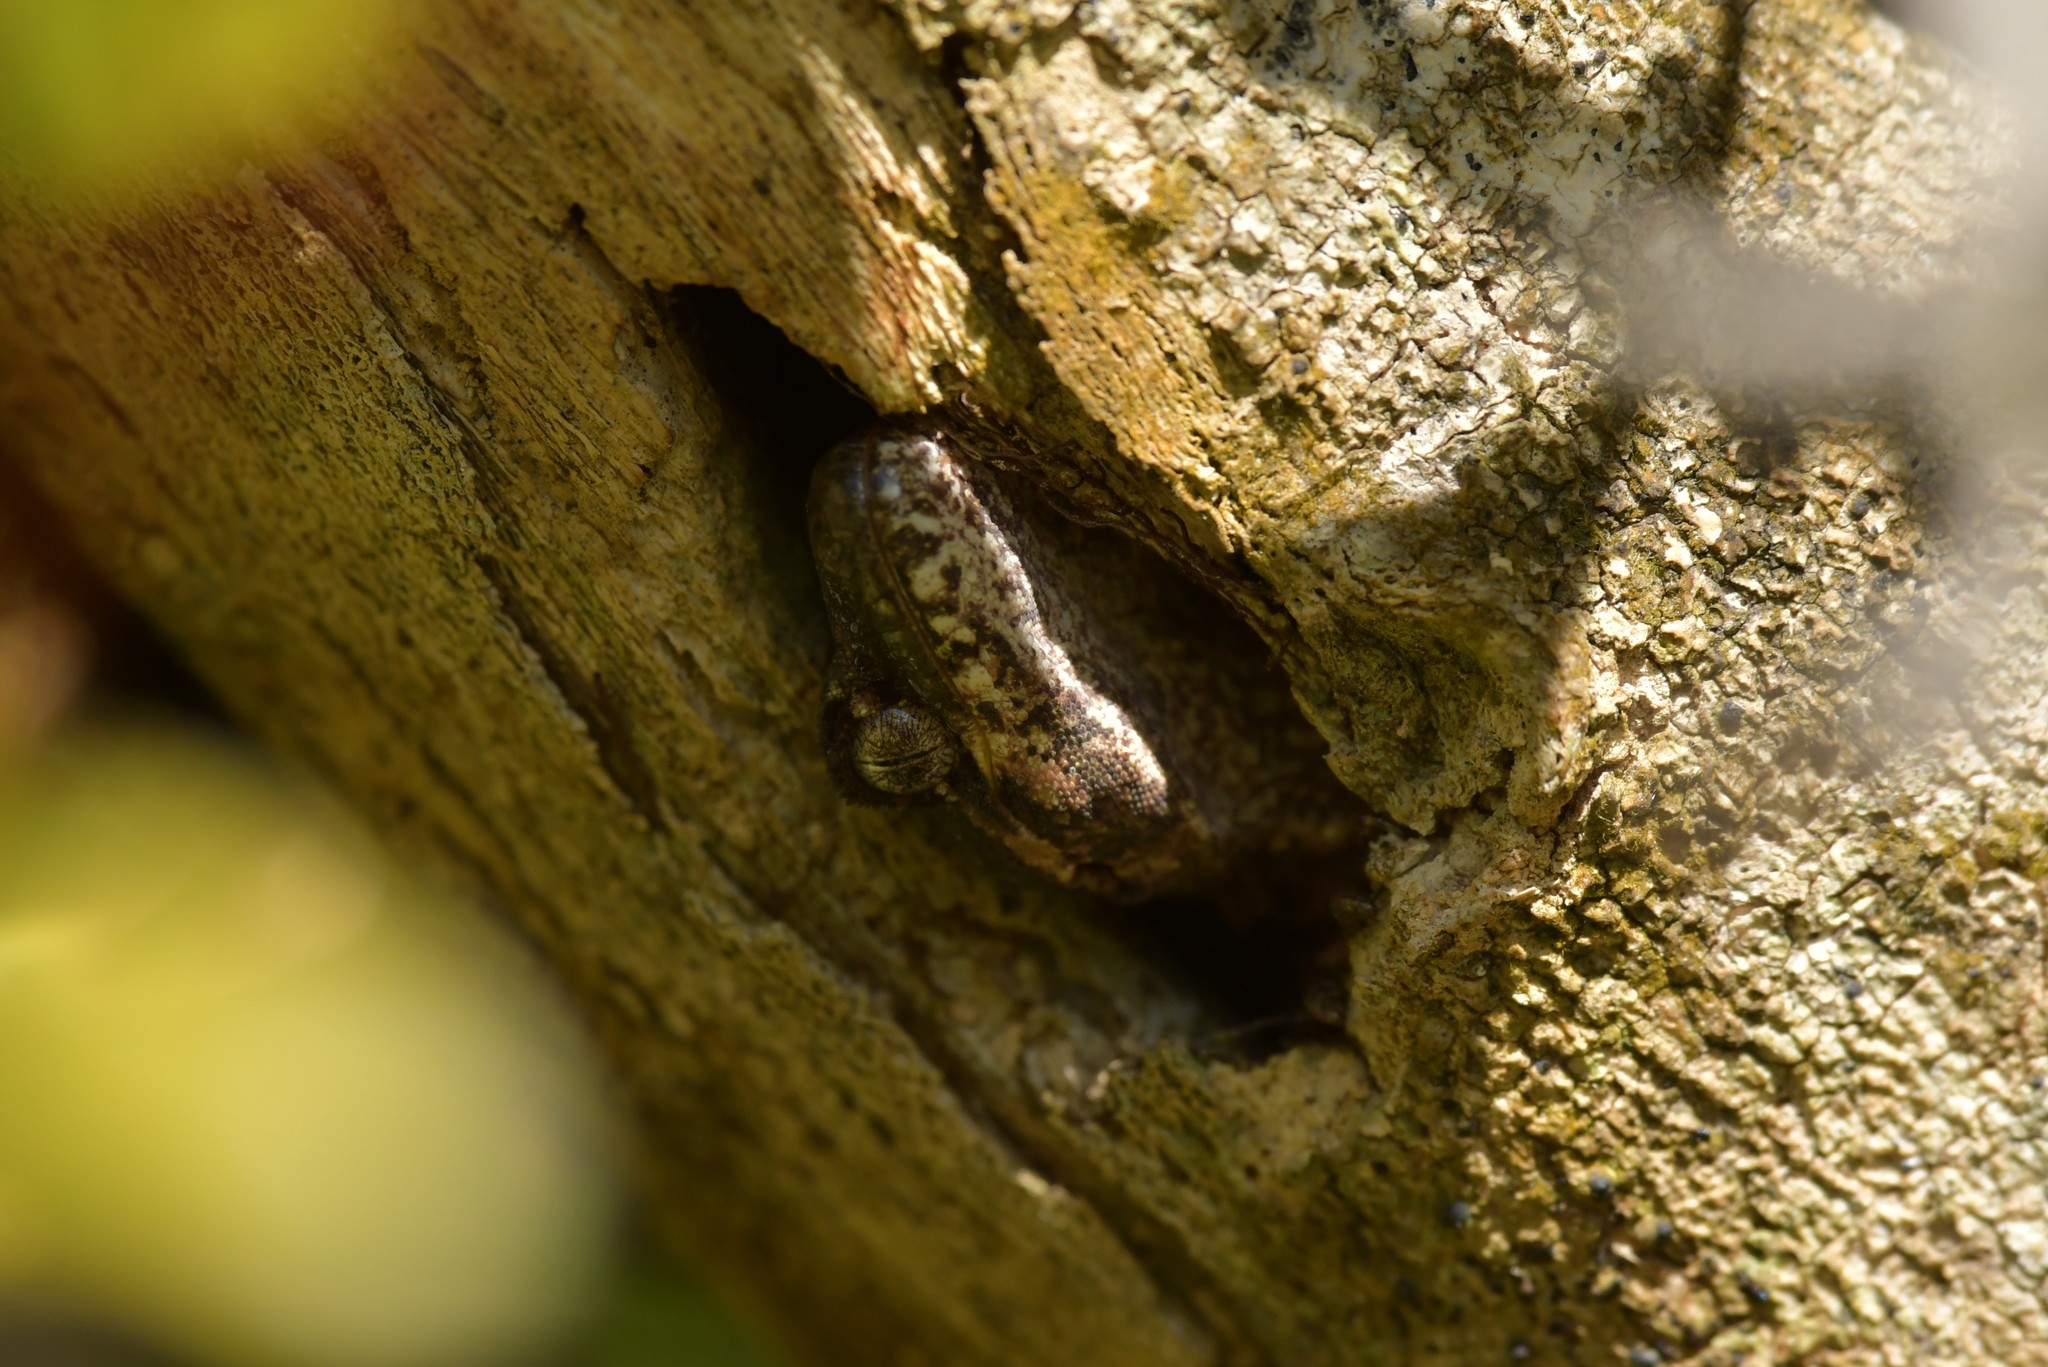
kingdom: Animalia
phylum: Chordata
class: Squamata
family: Diplodactylidae
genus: Mokopirirakau
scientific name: Mokopirirakau
